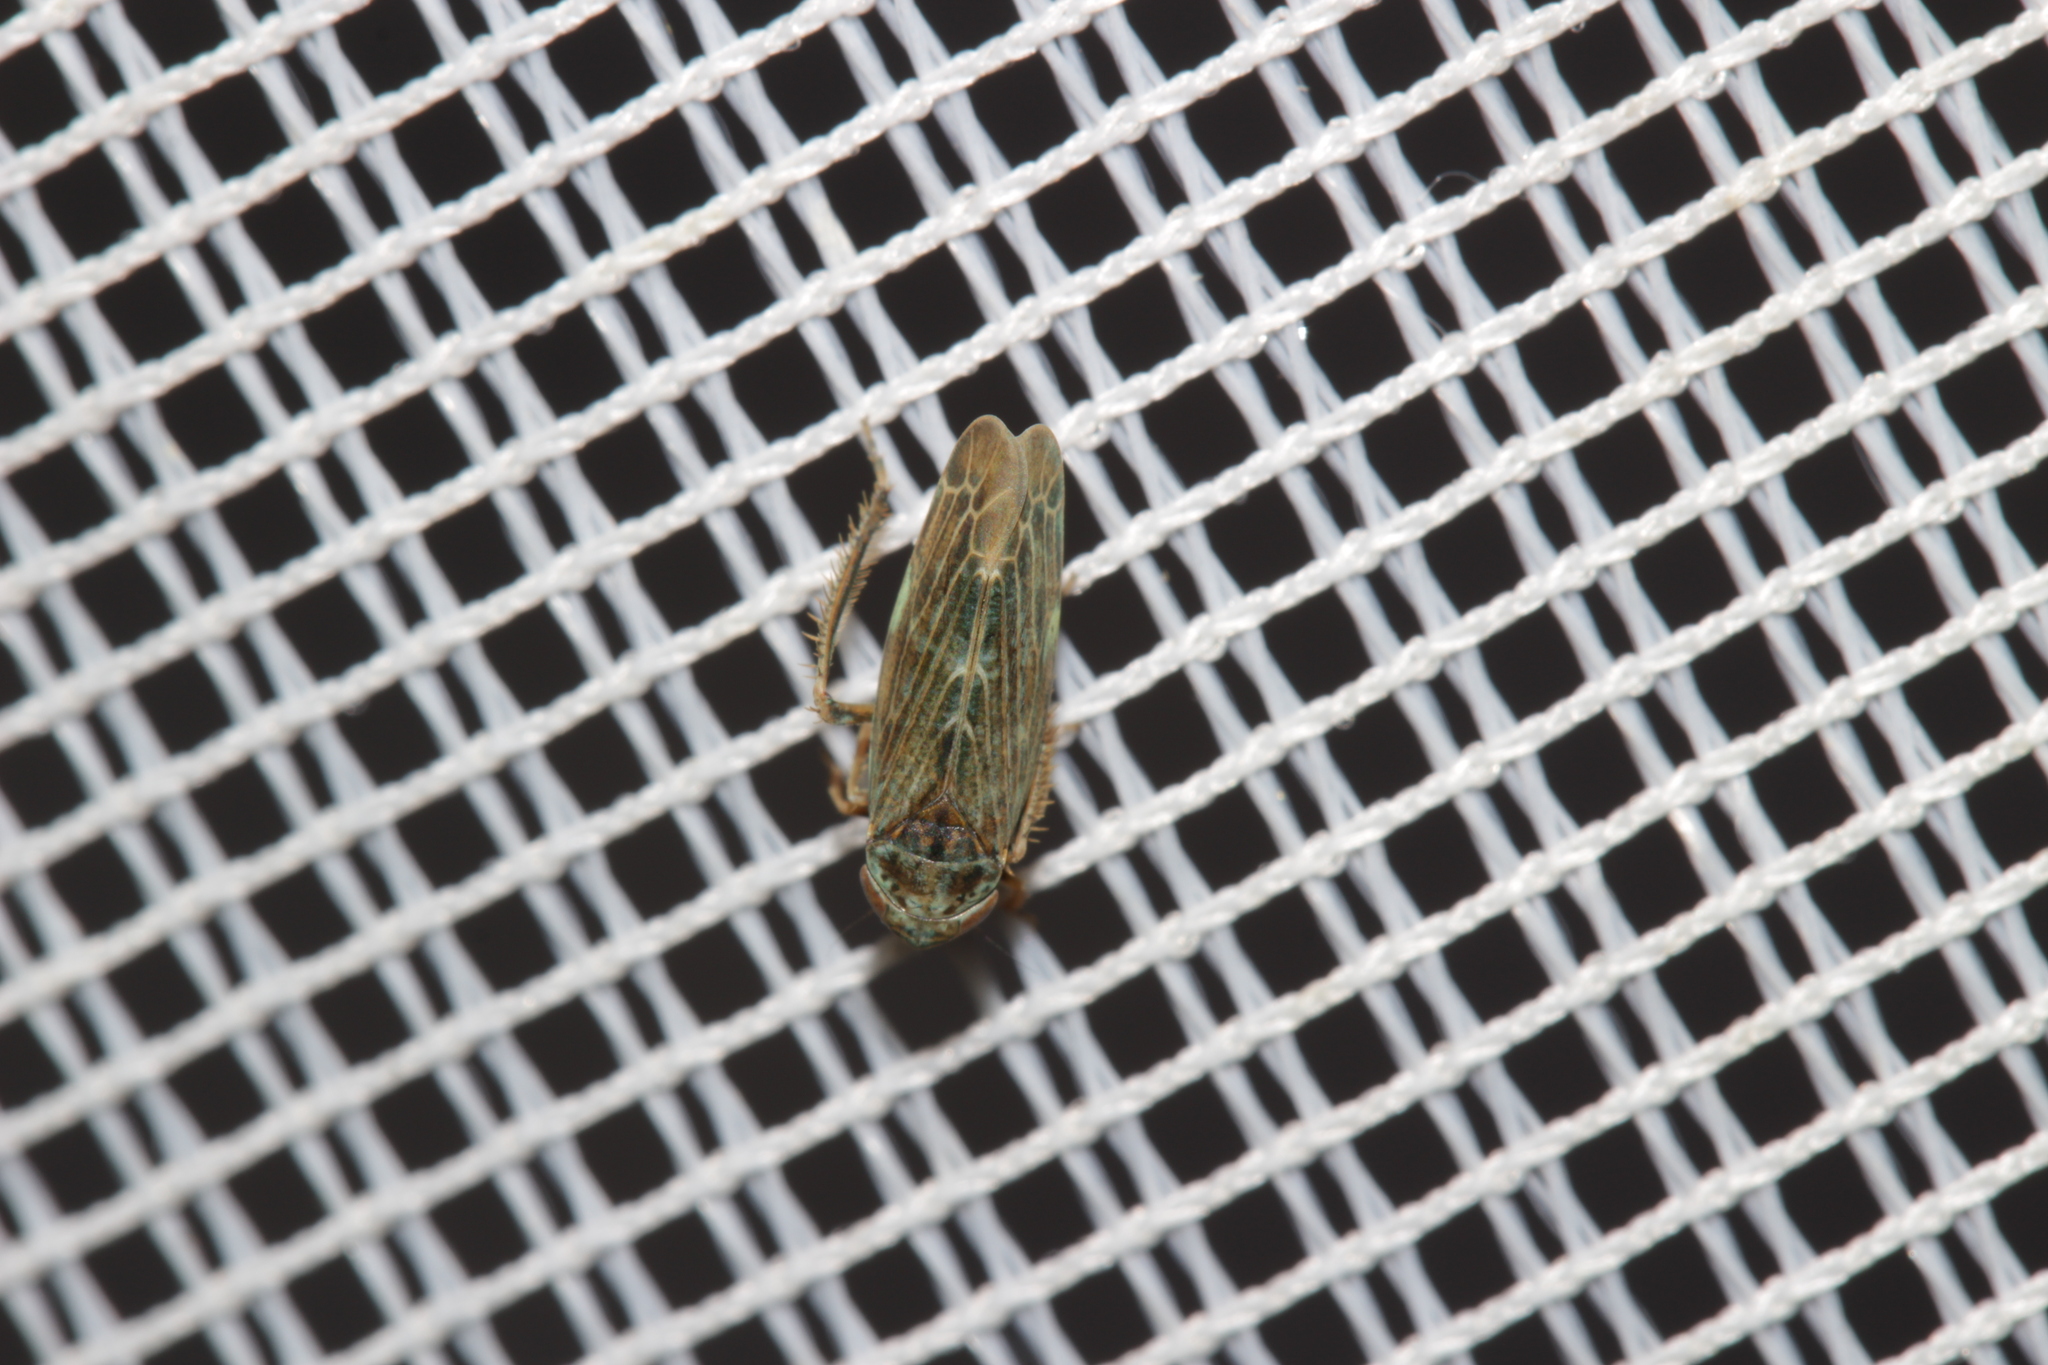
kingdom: Animalia
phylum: Arthropoda
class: Insecta
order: Hemiptera
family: Cicadellidae
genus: Speudotettix
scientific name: Speudotettix subfusculus
